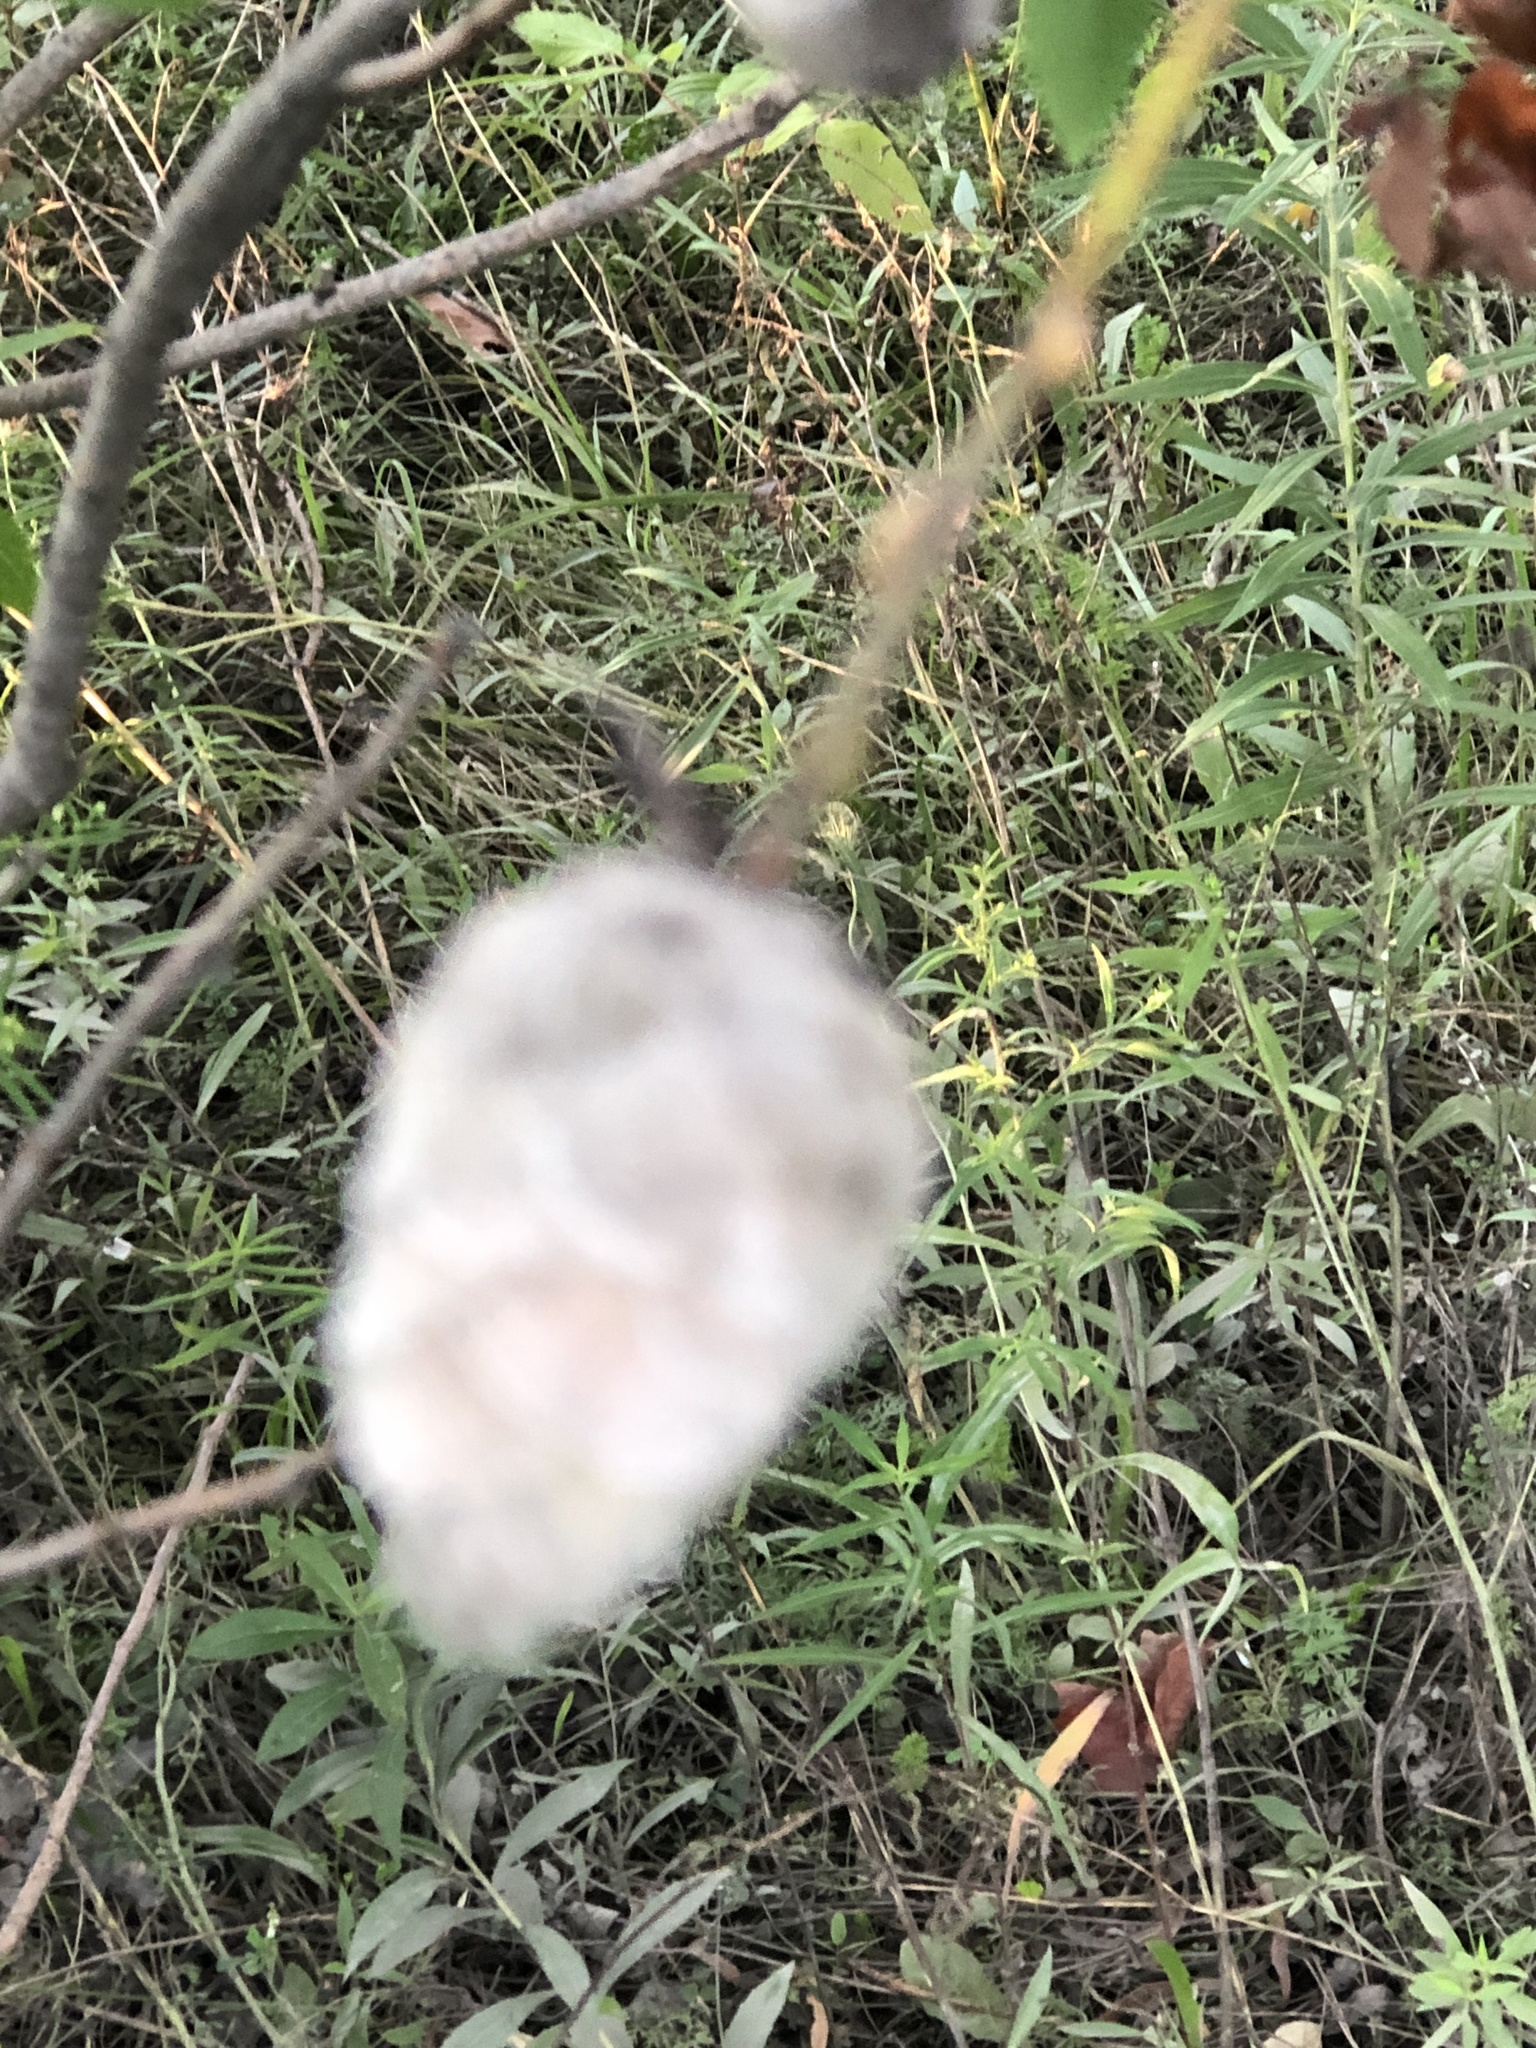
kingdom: Animalia
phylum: Arthropoda
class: Insecta
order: Diptera
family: Cecidomyiidae
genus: Rabdophaga
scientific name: Rabdophaga strobiloides
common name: Willow pinecone gall midge
